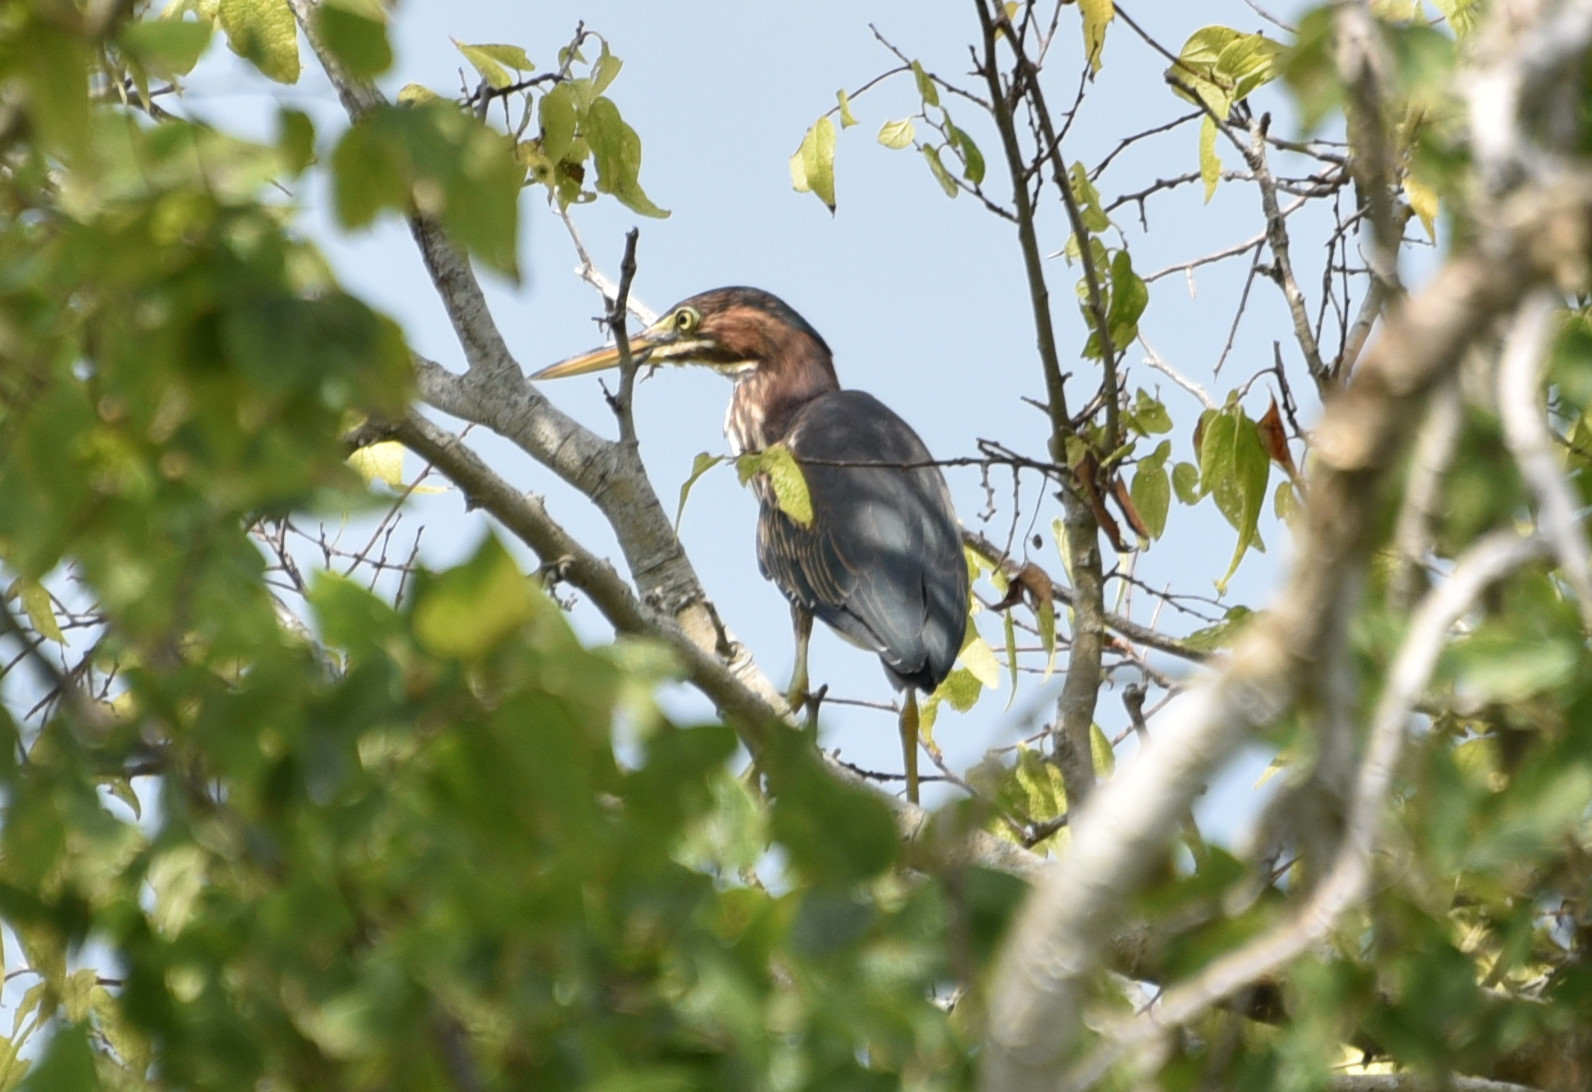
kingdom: Animalia
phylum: Chordata
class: Aves
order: Pelecaniformes
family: Ardeidae
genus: Butorides
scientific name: Butorides virescens
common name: Green heron
